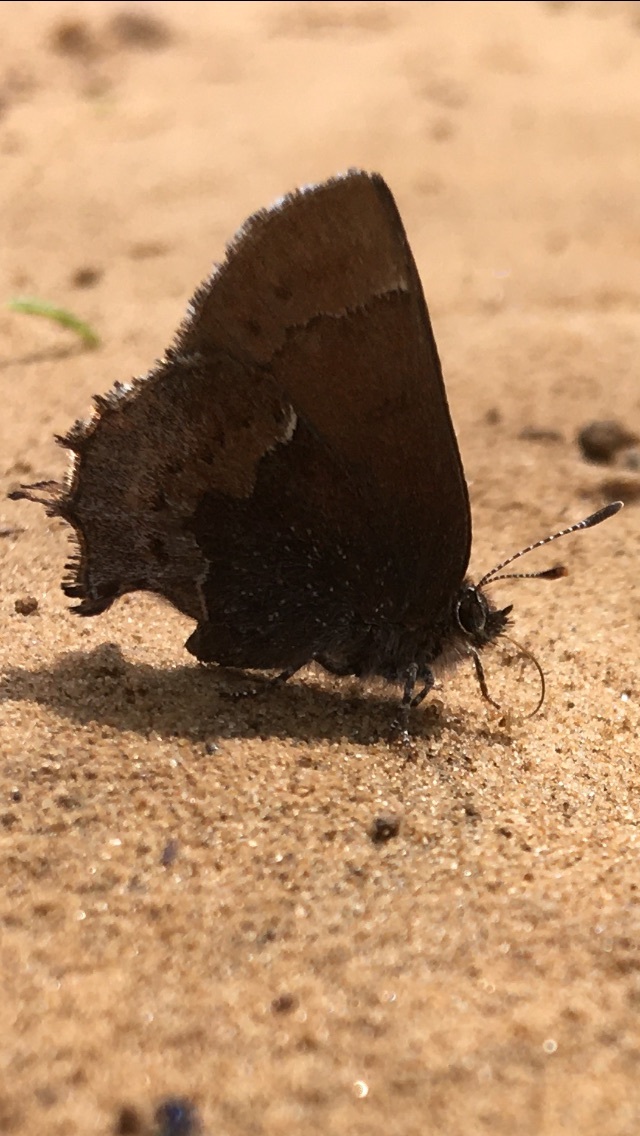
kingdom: Animalia
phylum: Arthropoda
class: Insecta
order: Lepidoptera
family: Lycaenidae
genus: Incisalia
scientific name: Incisalia henrici
